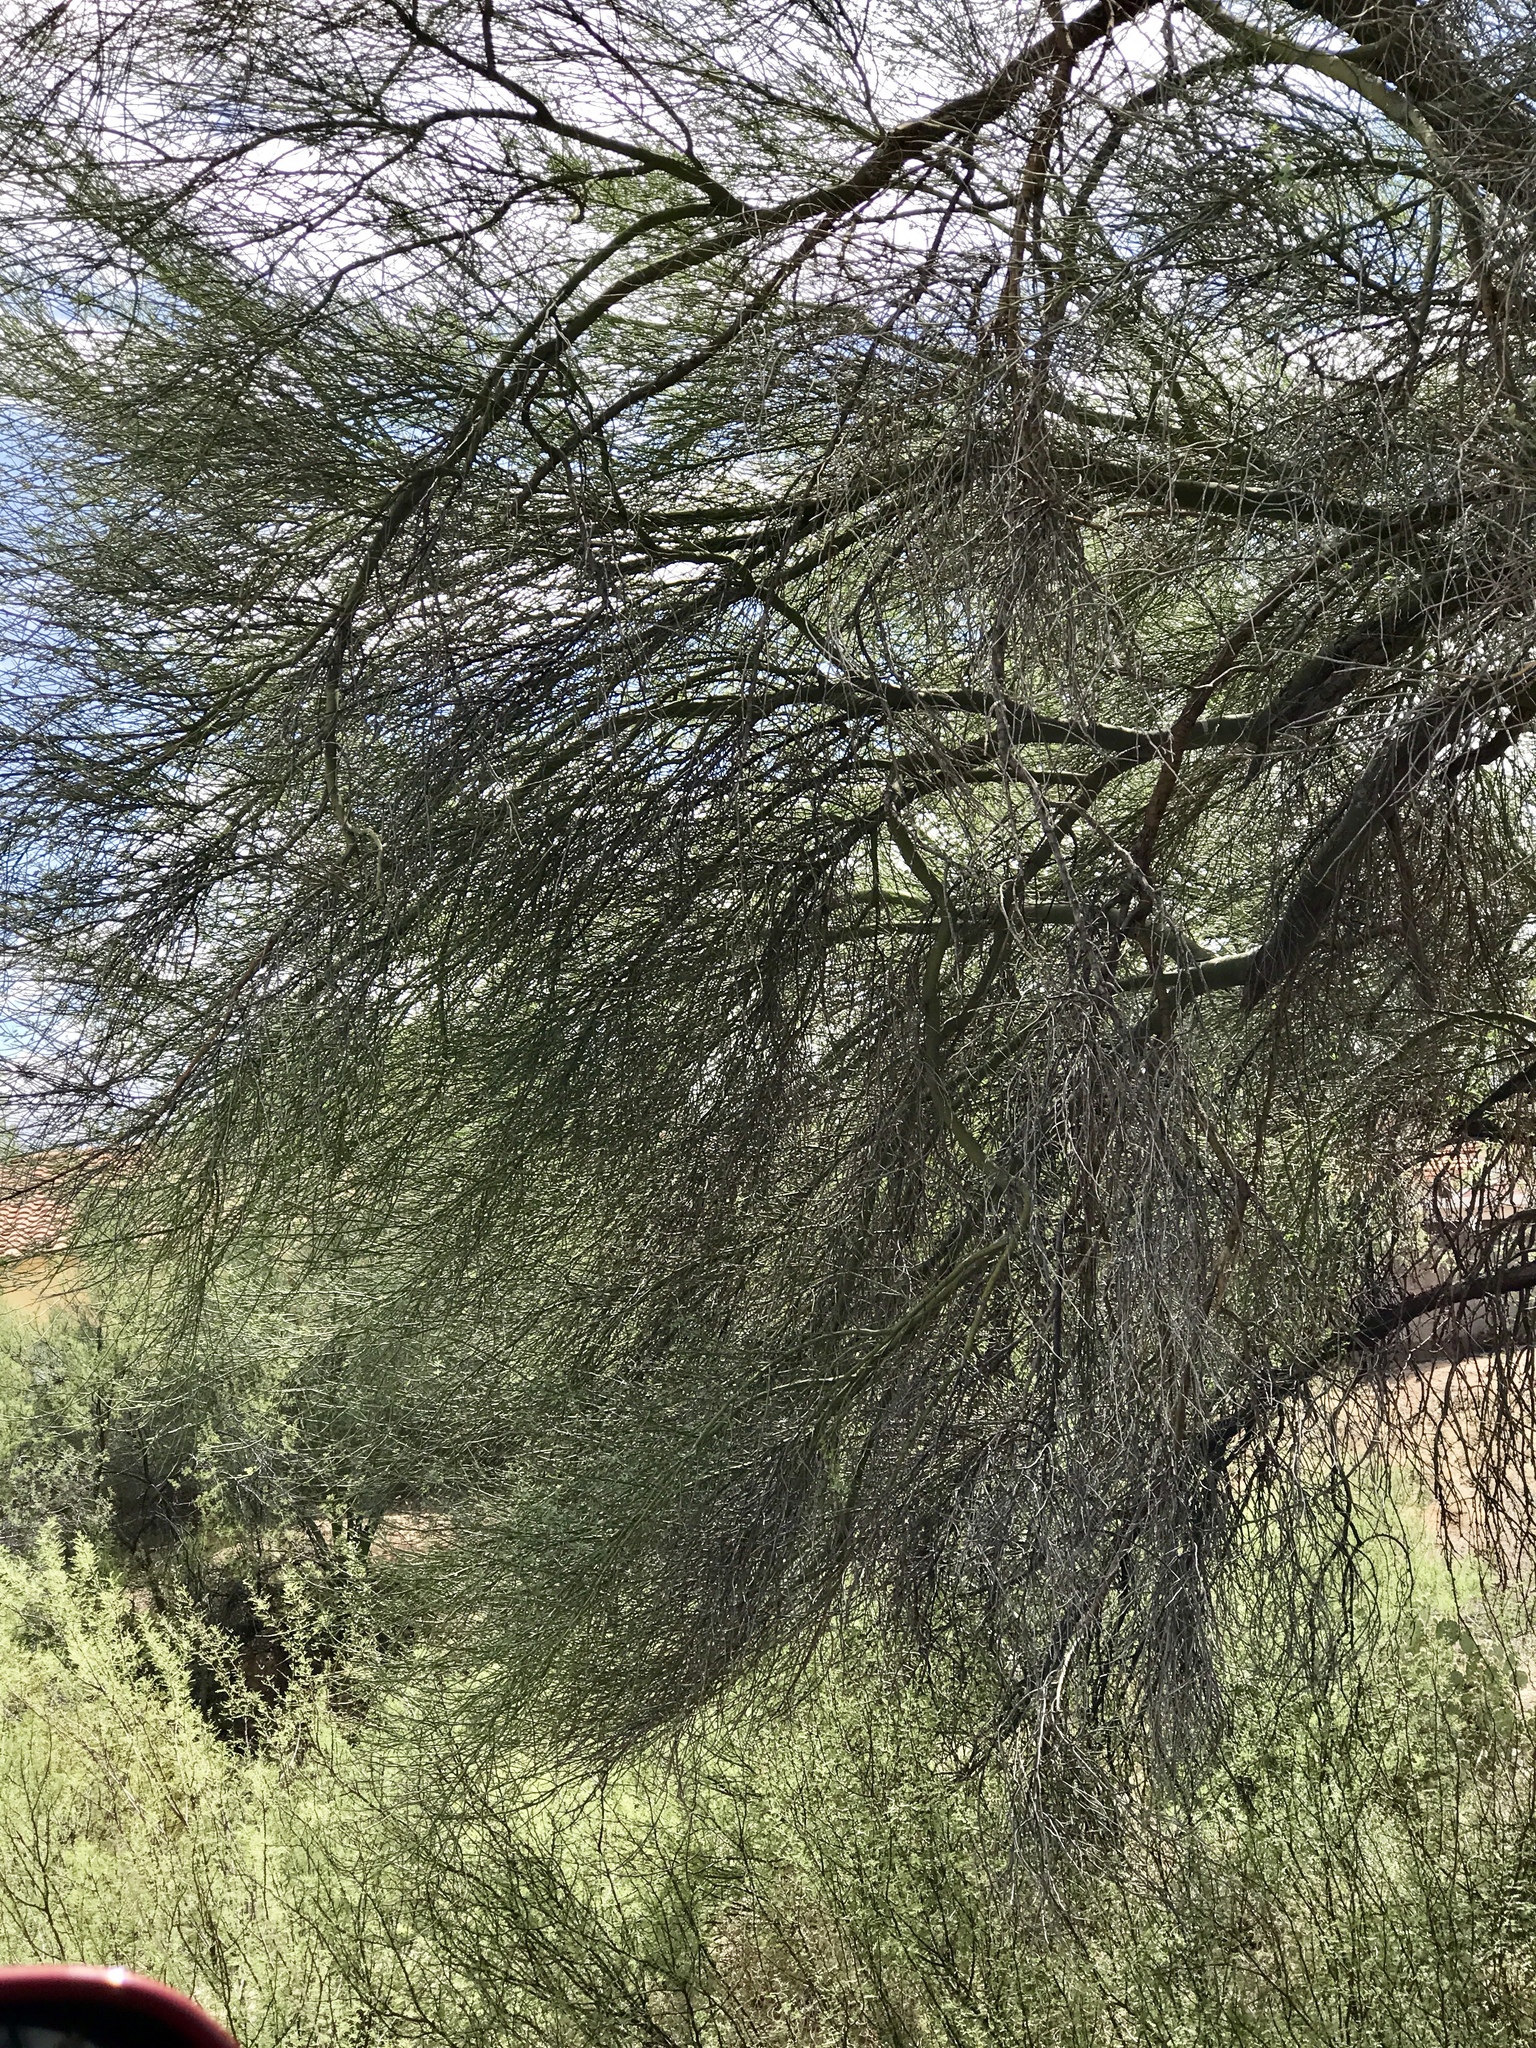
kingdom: Plantae
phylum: Tracheophyta
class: Magnoliopsida
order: Fabales
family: Fabaceae
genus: Parkinsonia
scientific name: Parkinsonia florida
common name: Blue paloverde
